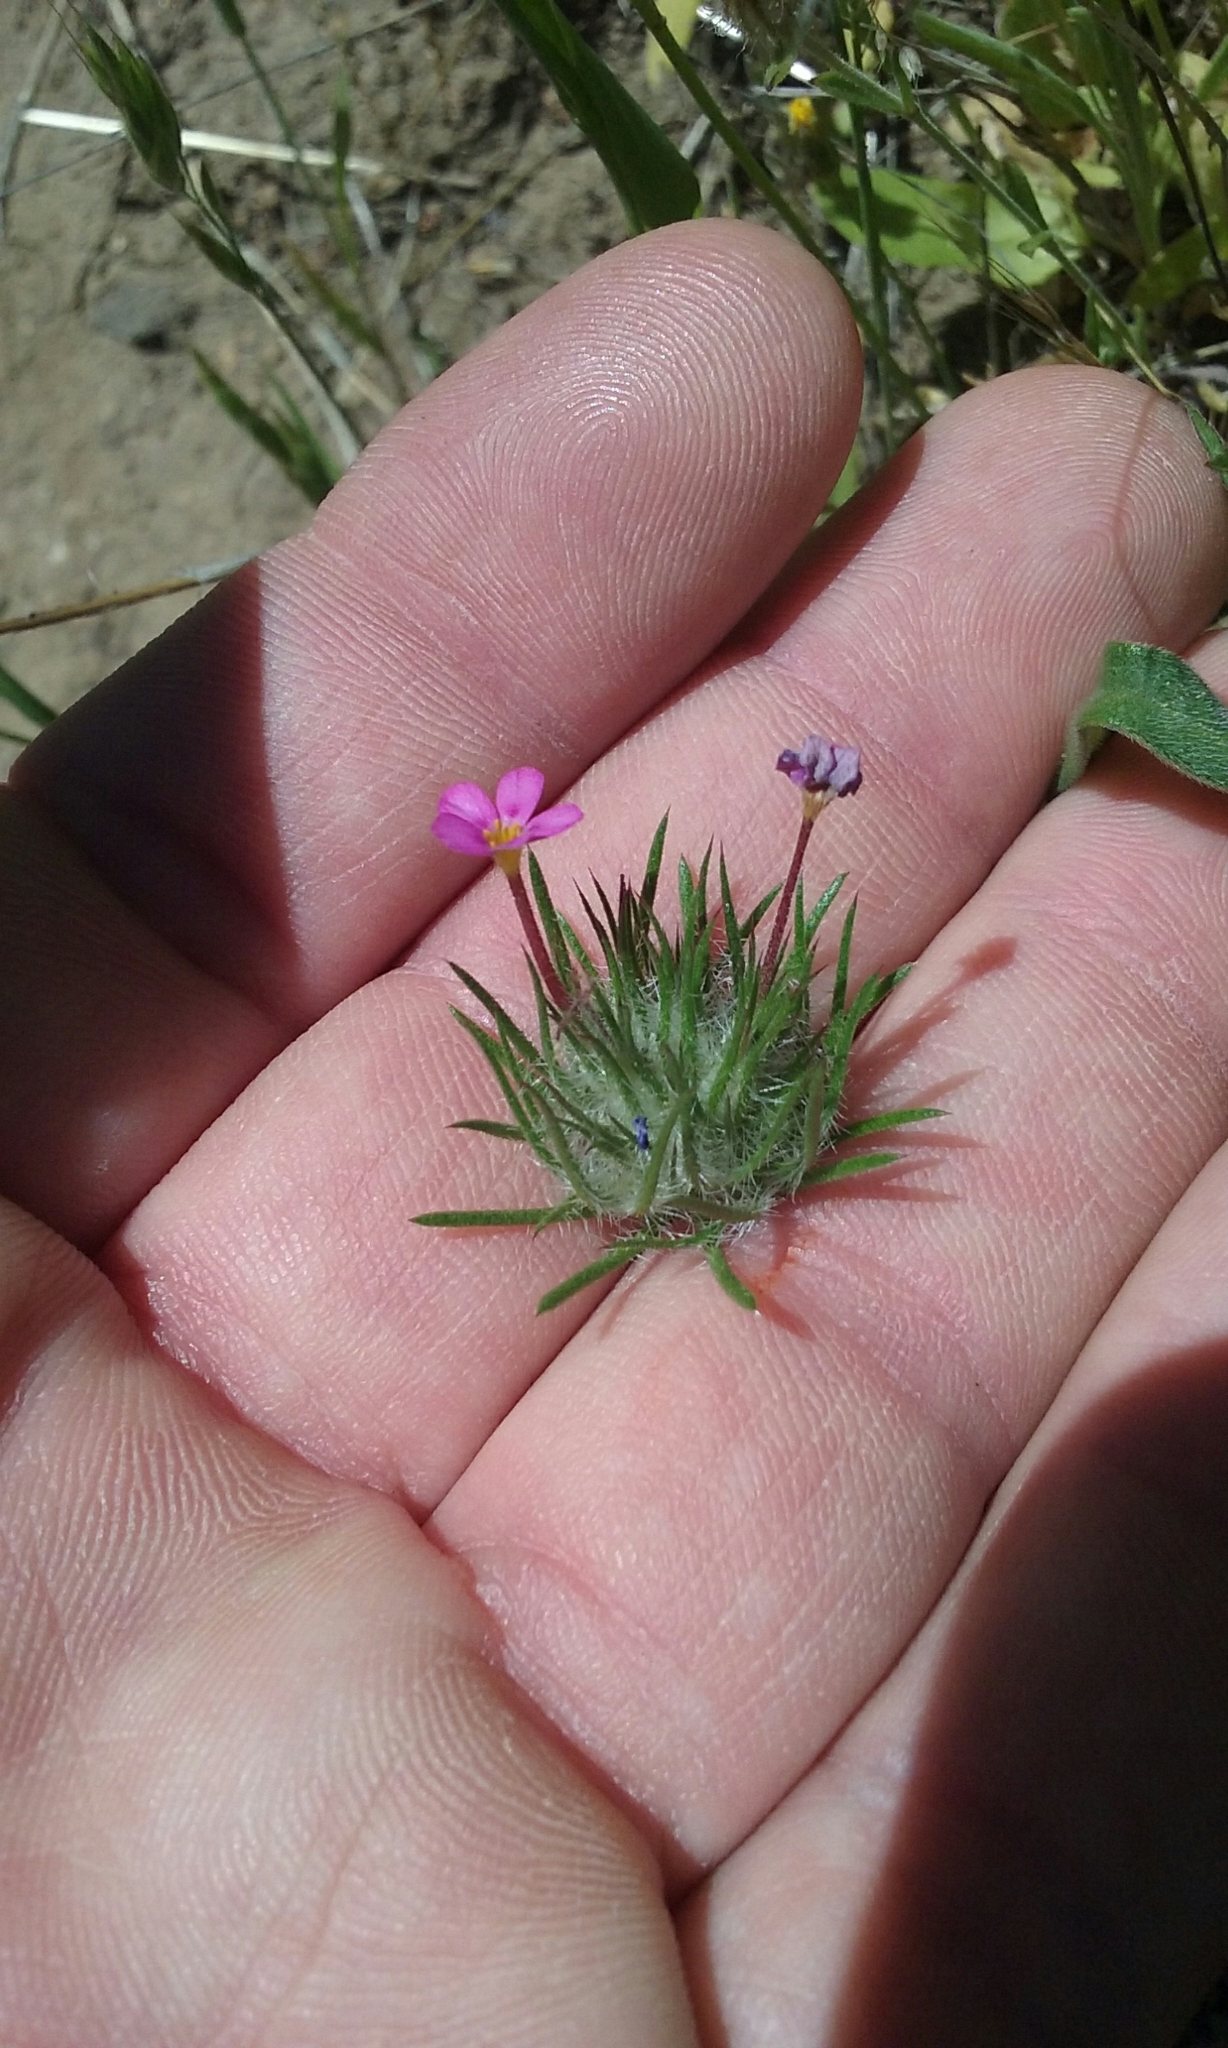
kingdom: Plantae
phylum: Tracheophyta
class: Magnoliopsida
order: Ericales
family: Polemoniaceae
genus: Leptosiphon
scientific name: Leptosiphon ciliatus
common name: Whiskerbrush
